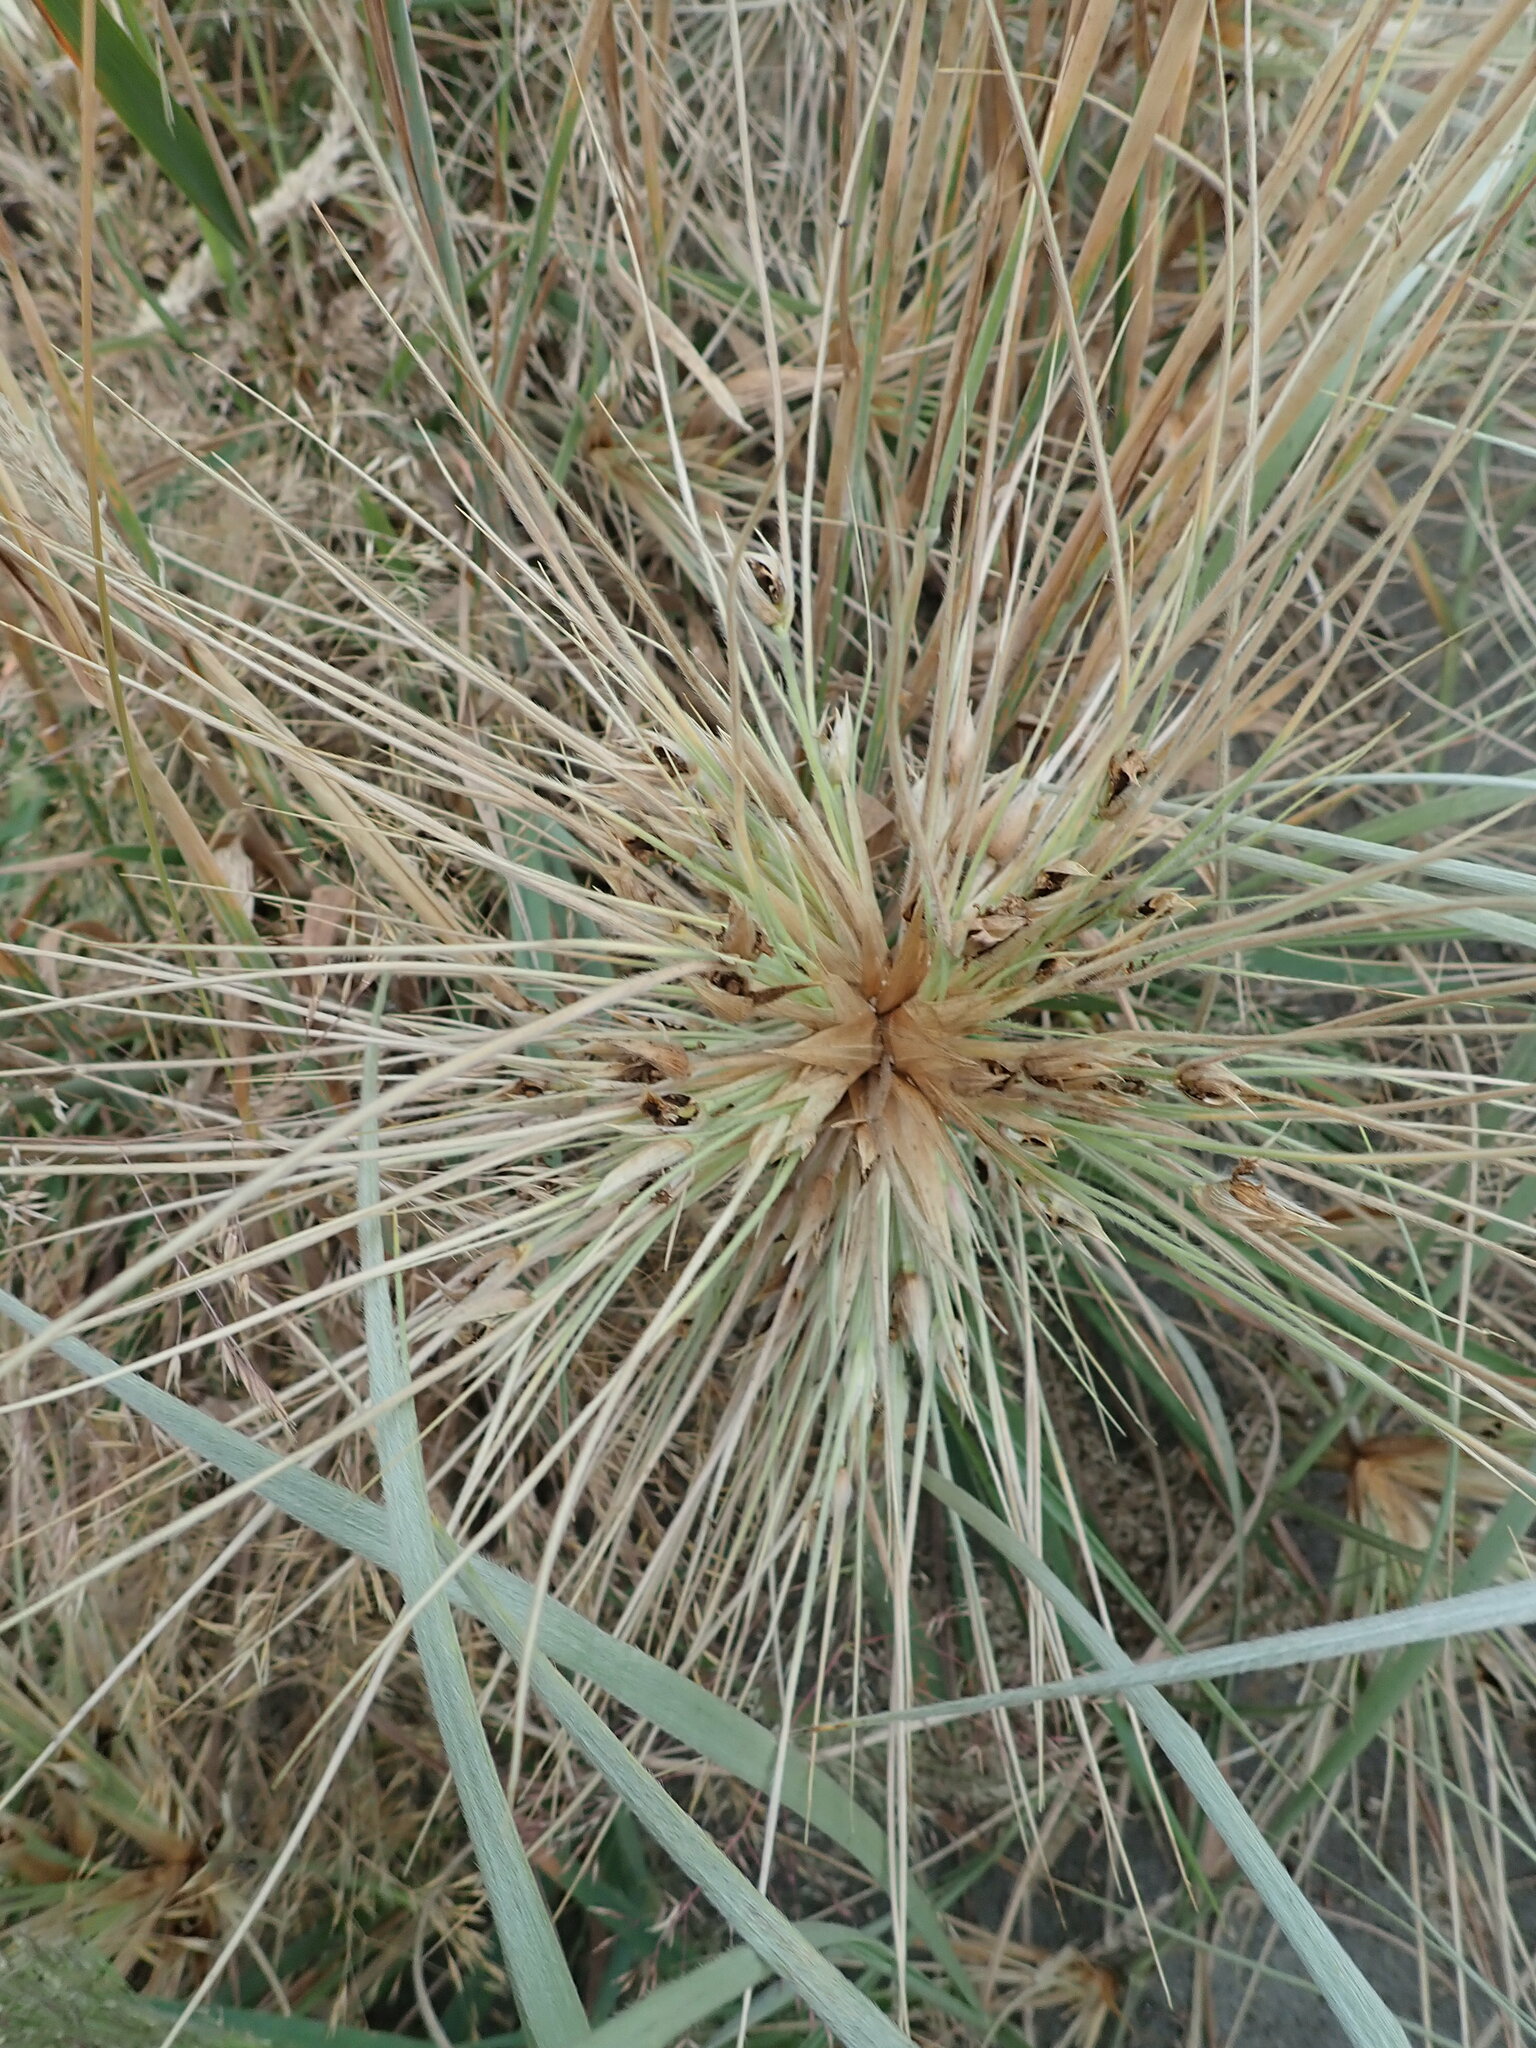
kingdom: Plantae
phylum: Tracheophyta
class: Liliopsida
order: Poales
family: Poaceae
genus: Spinifex
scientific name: Spinifex sericeus
